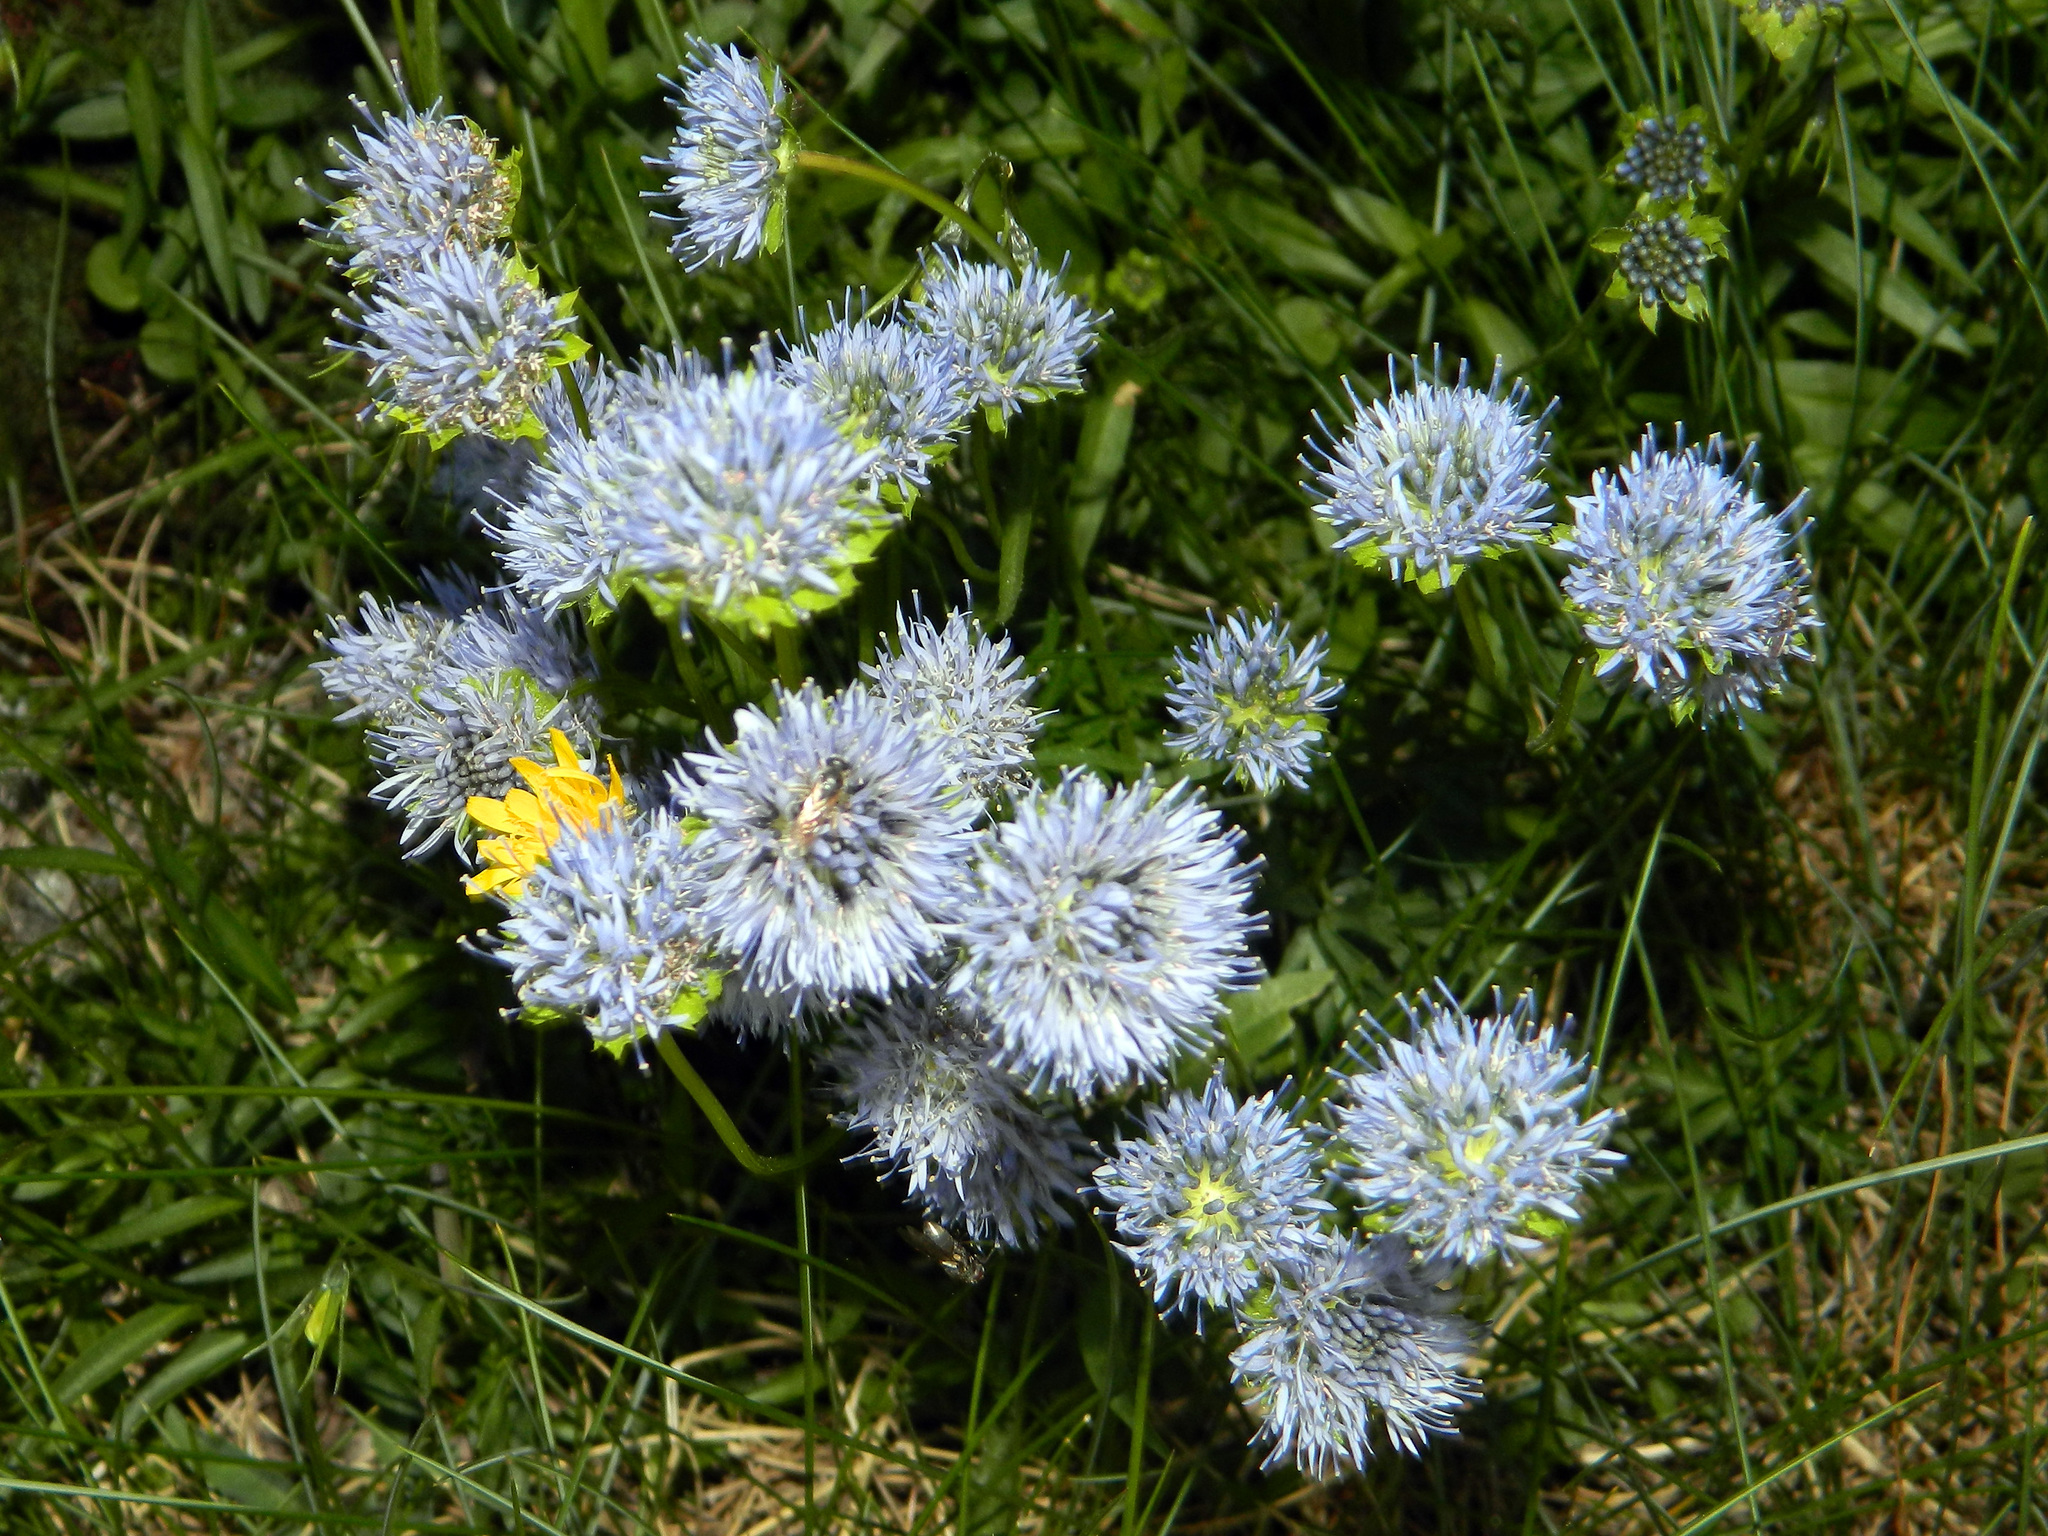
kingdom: Plantae
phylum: Tracheophyta
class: Magnoliopsida
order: Asterales
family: Campanulaceae
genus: Jasione
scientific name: Jasione laevis
